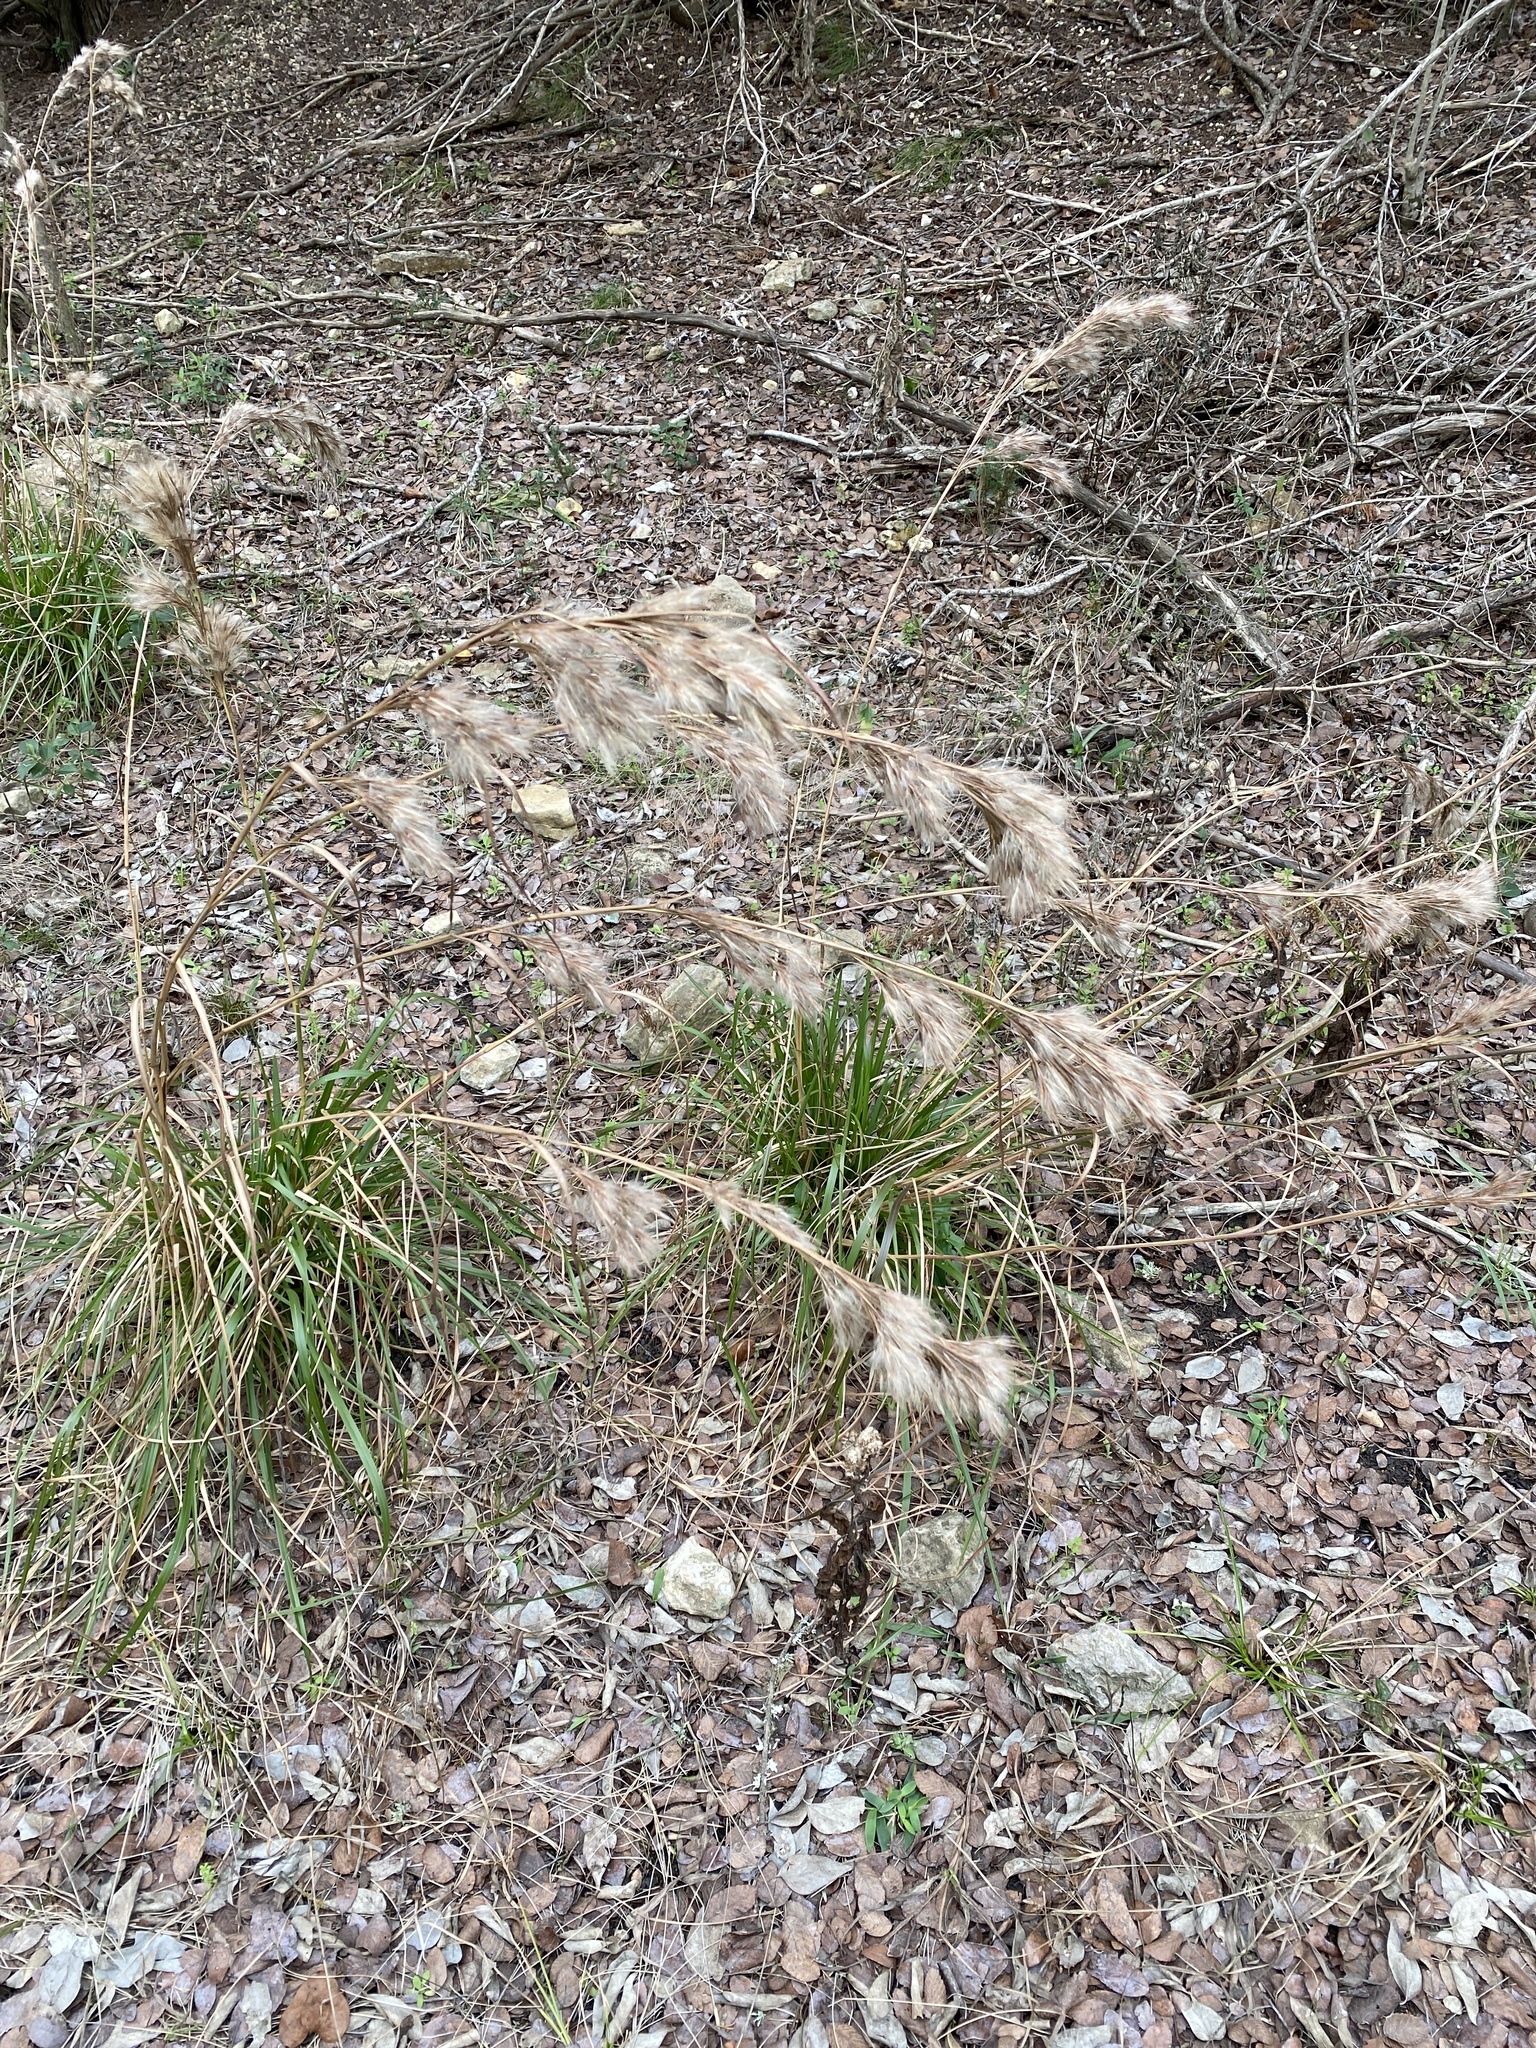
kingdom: Plantae
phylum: Tracheophyta
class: Liliopsida
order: Poales
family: Poaceae
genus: Andropogon
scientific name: Andropogon tenuispatheus
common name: Bushy bluestem
